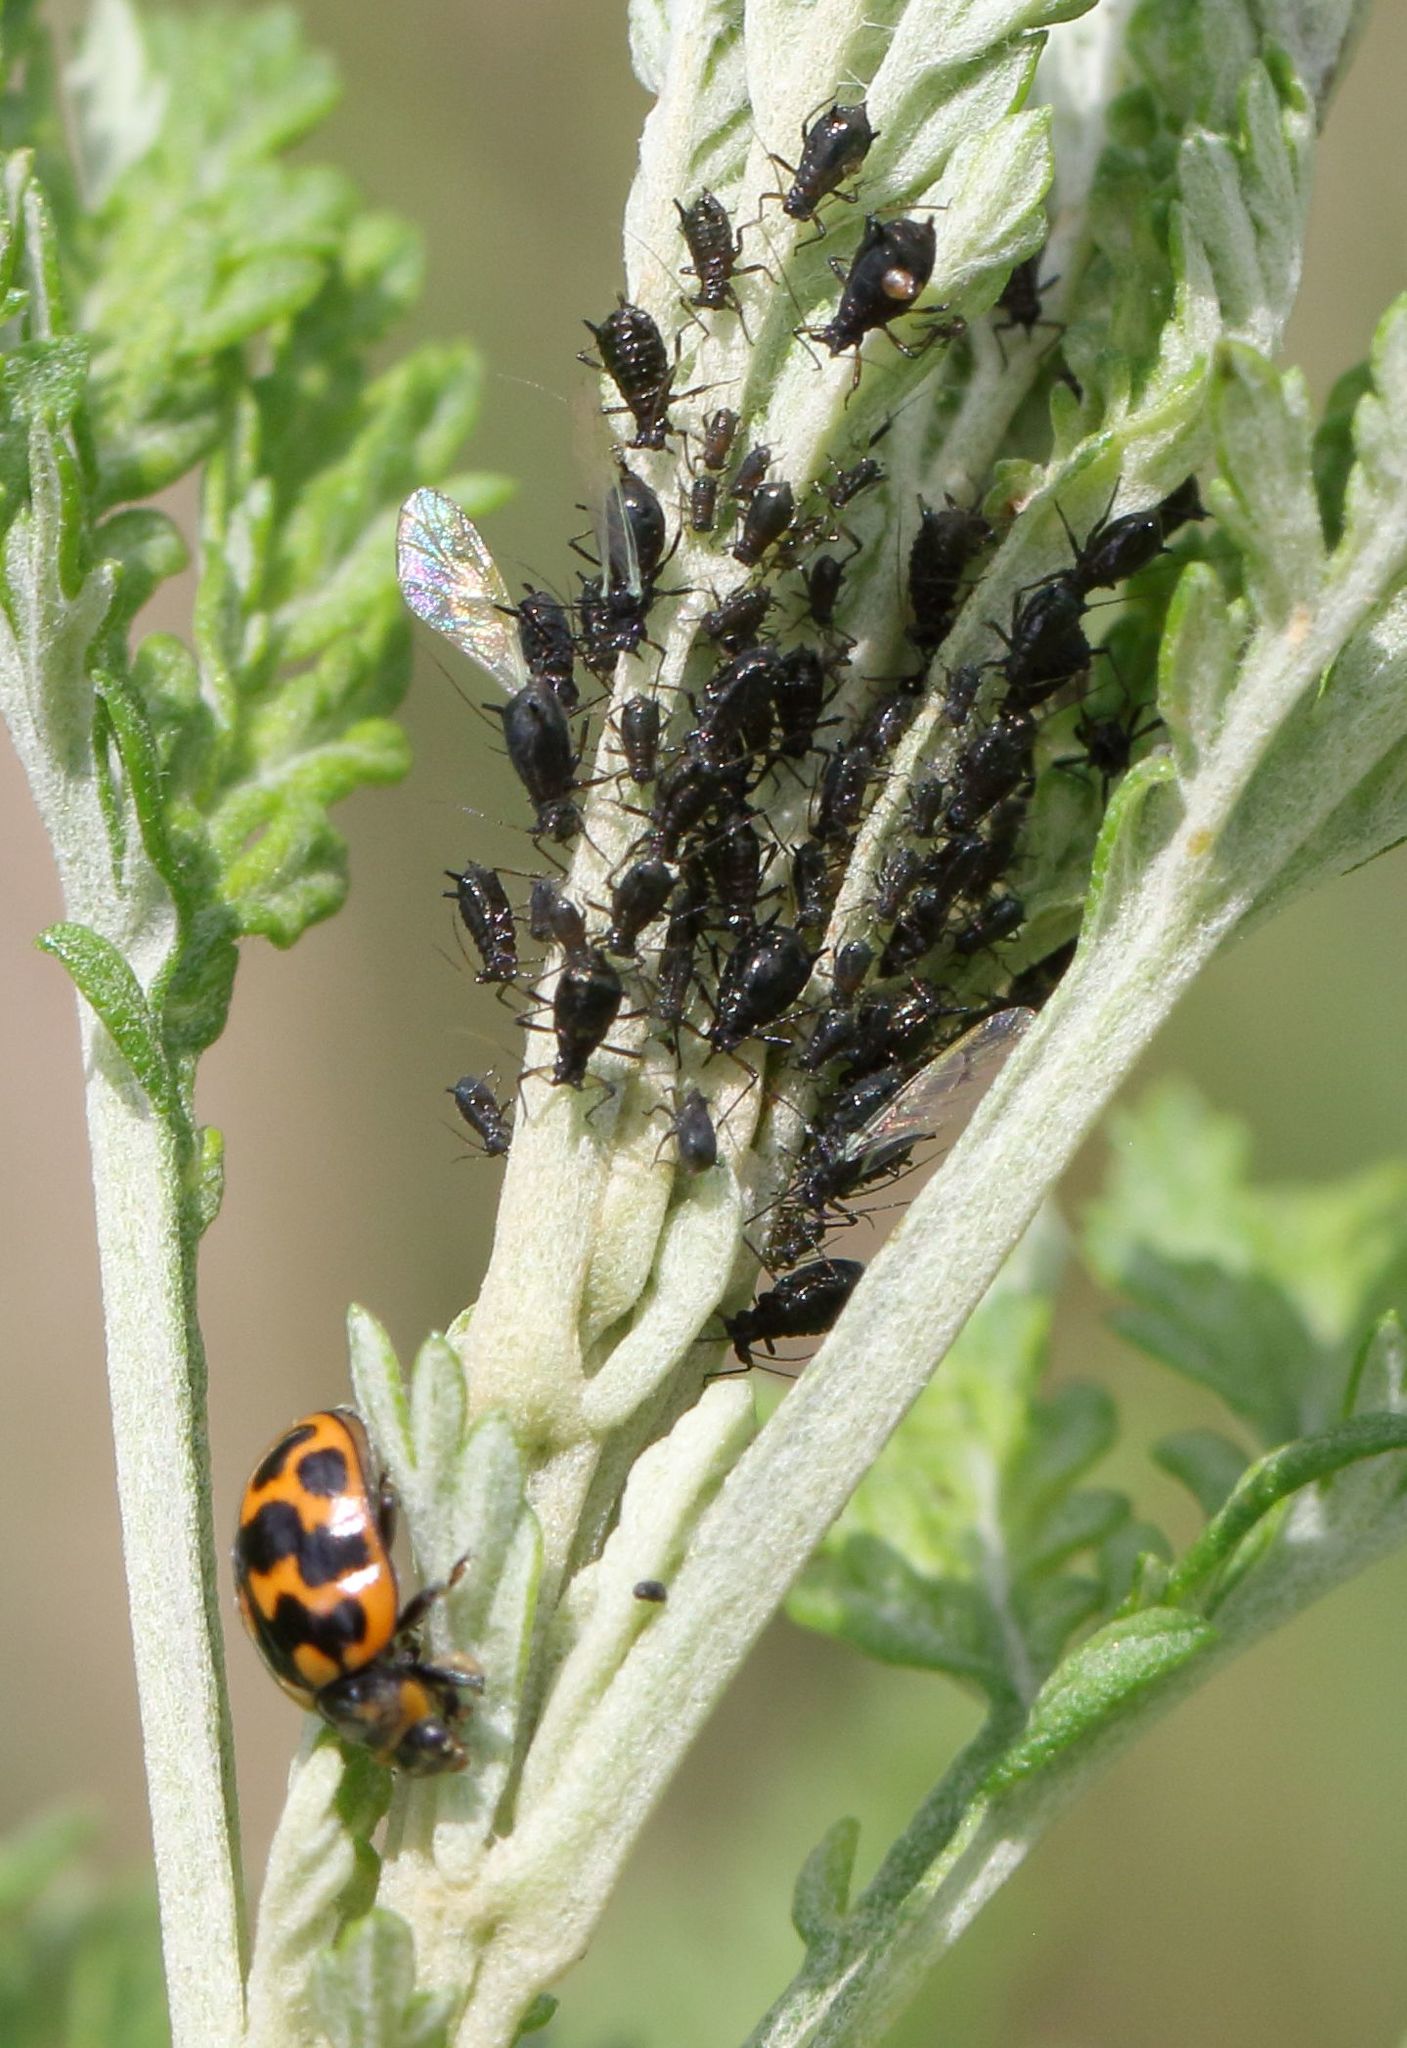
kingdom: Plantae
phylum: Tracheophyta
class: Magnoliopsida
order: Asterales
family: Asteraceae
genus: Artemisia
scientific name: Artemisia afra
